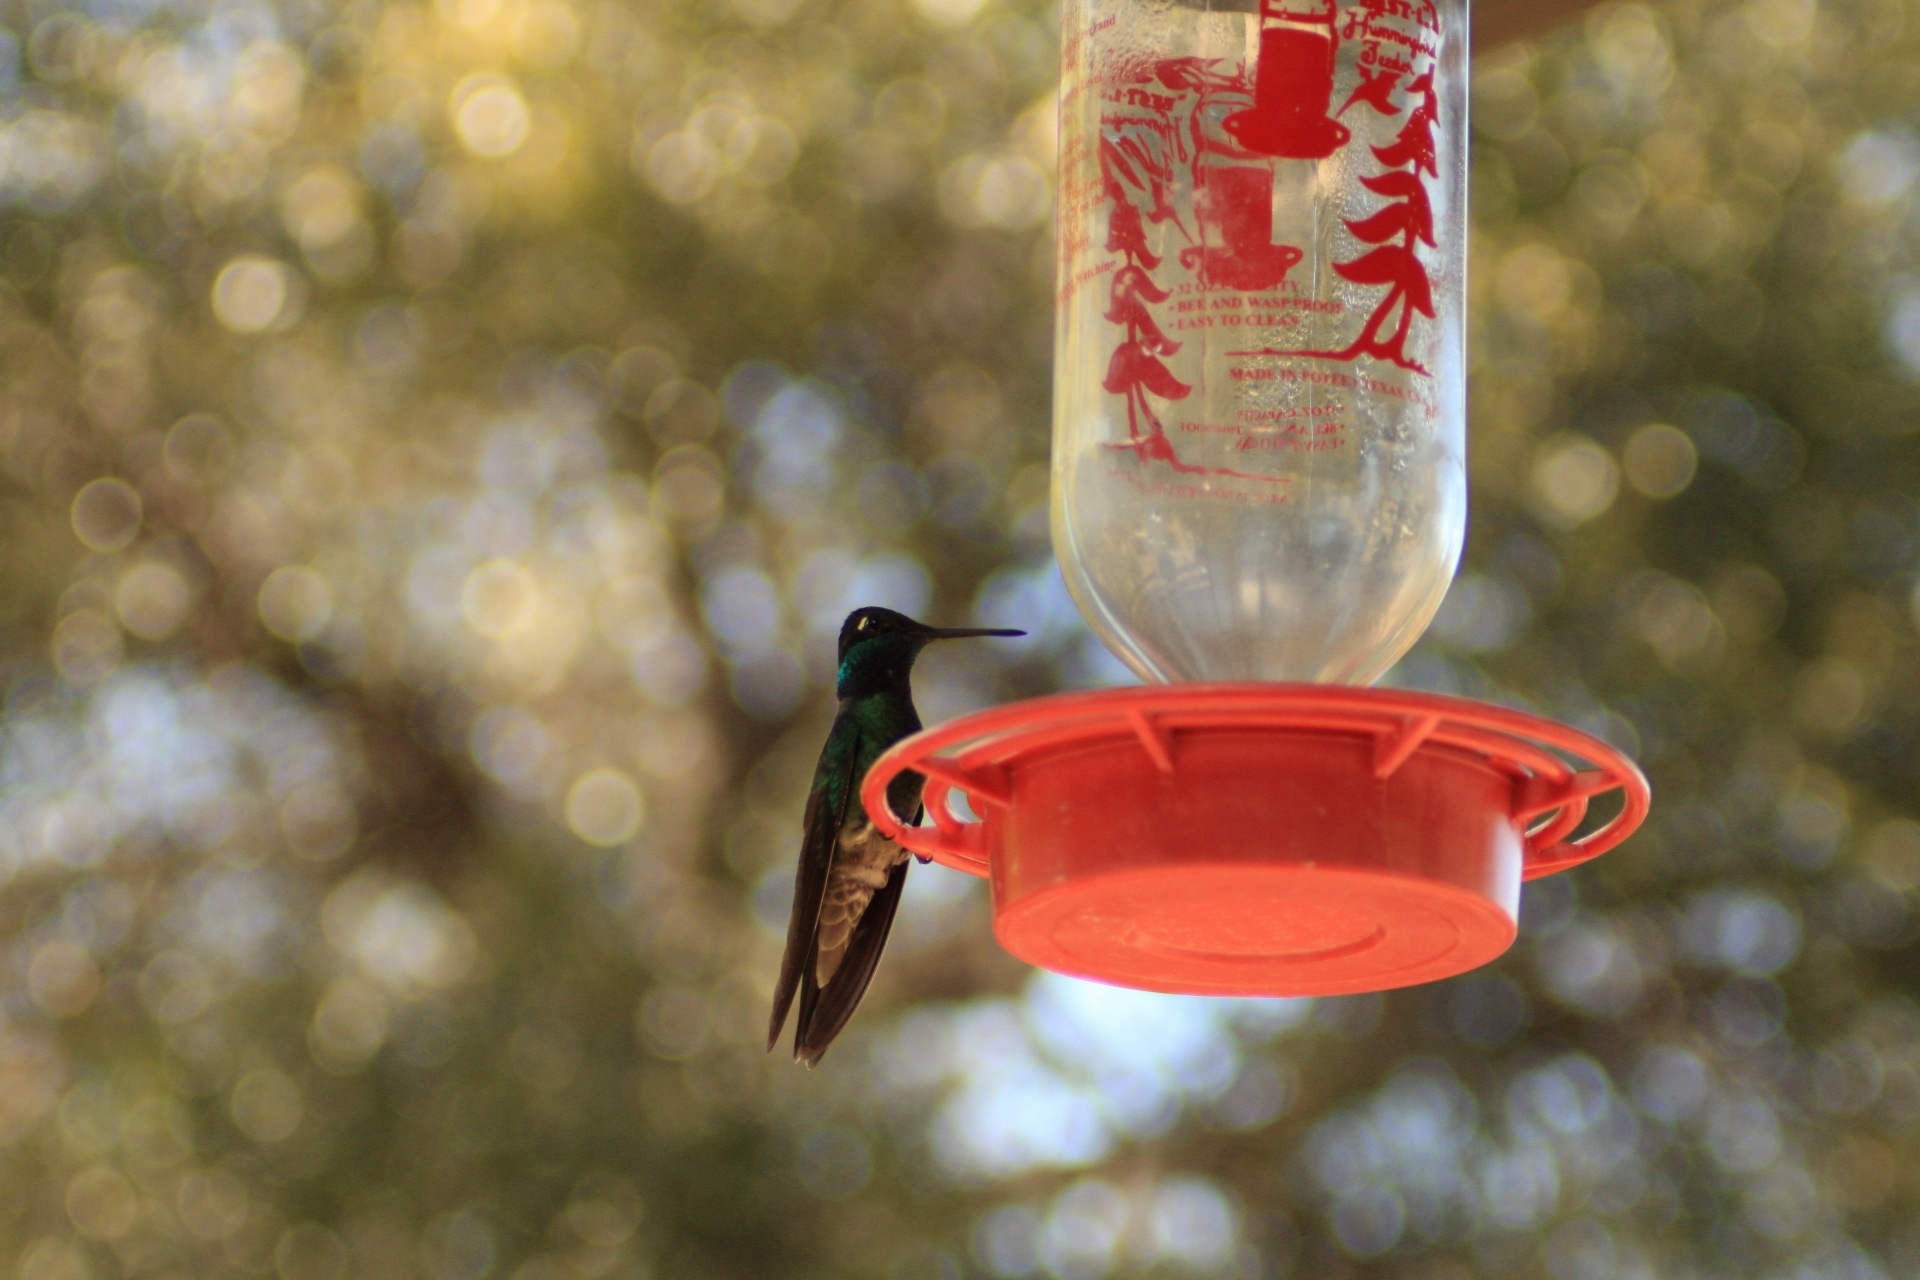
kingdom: Animalia
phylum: Chordata
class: Aves
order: Apodiformes
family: Trochilidae
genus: Eugenes
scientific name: Eugenes fulgens
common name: Magnificent hummingbird
